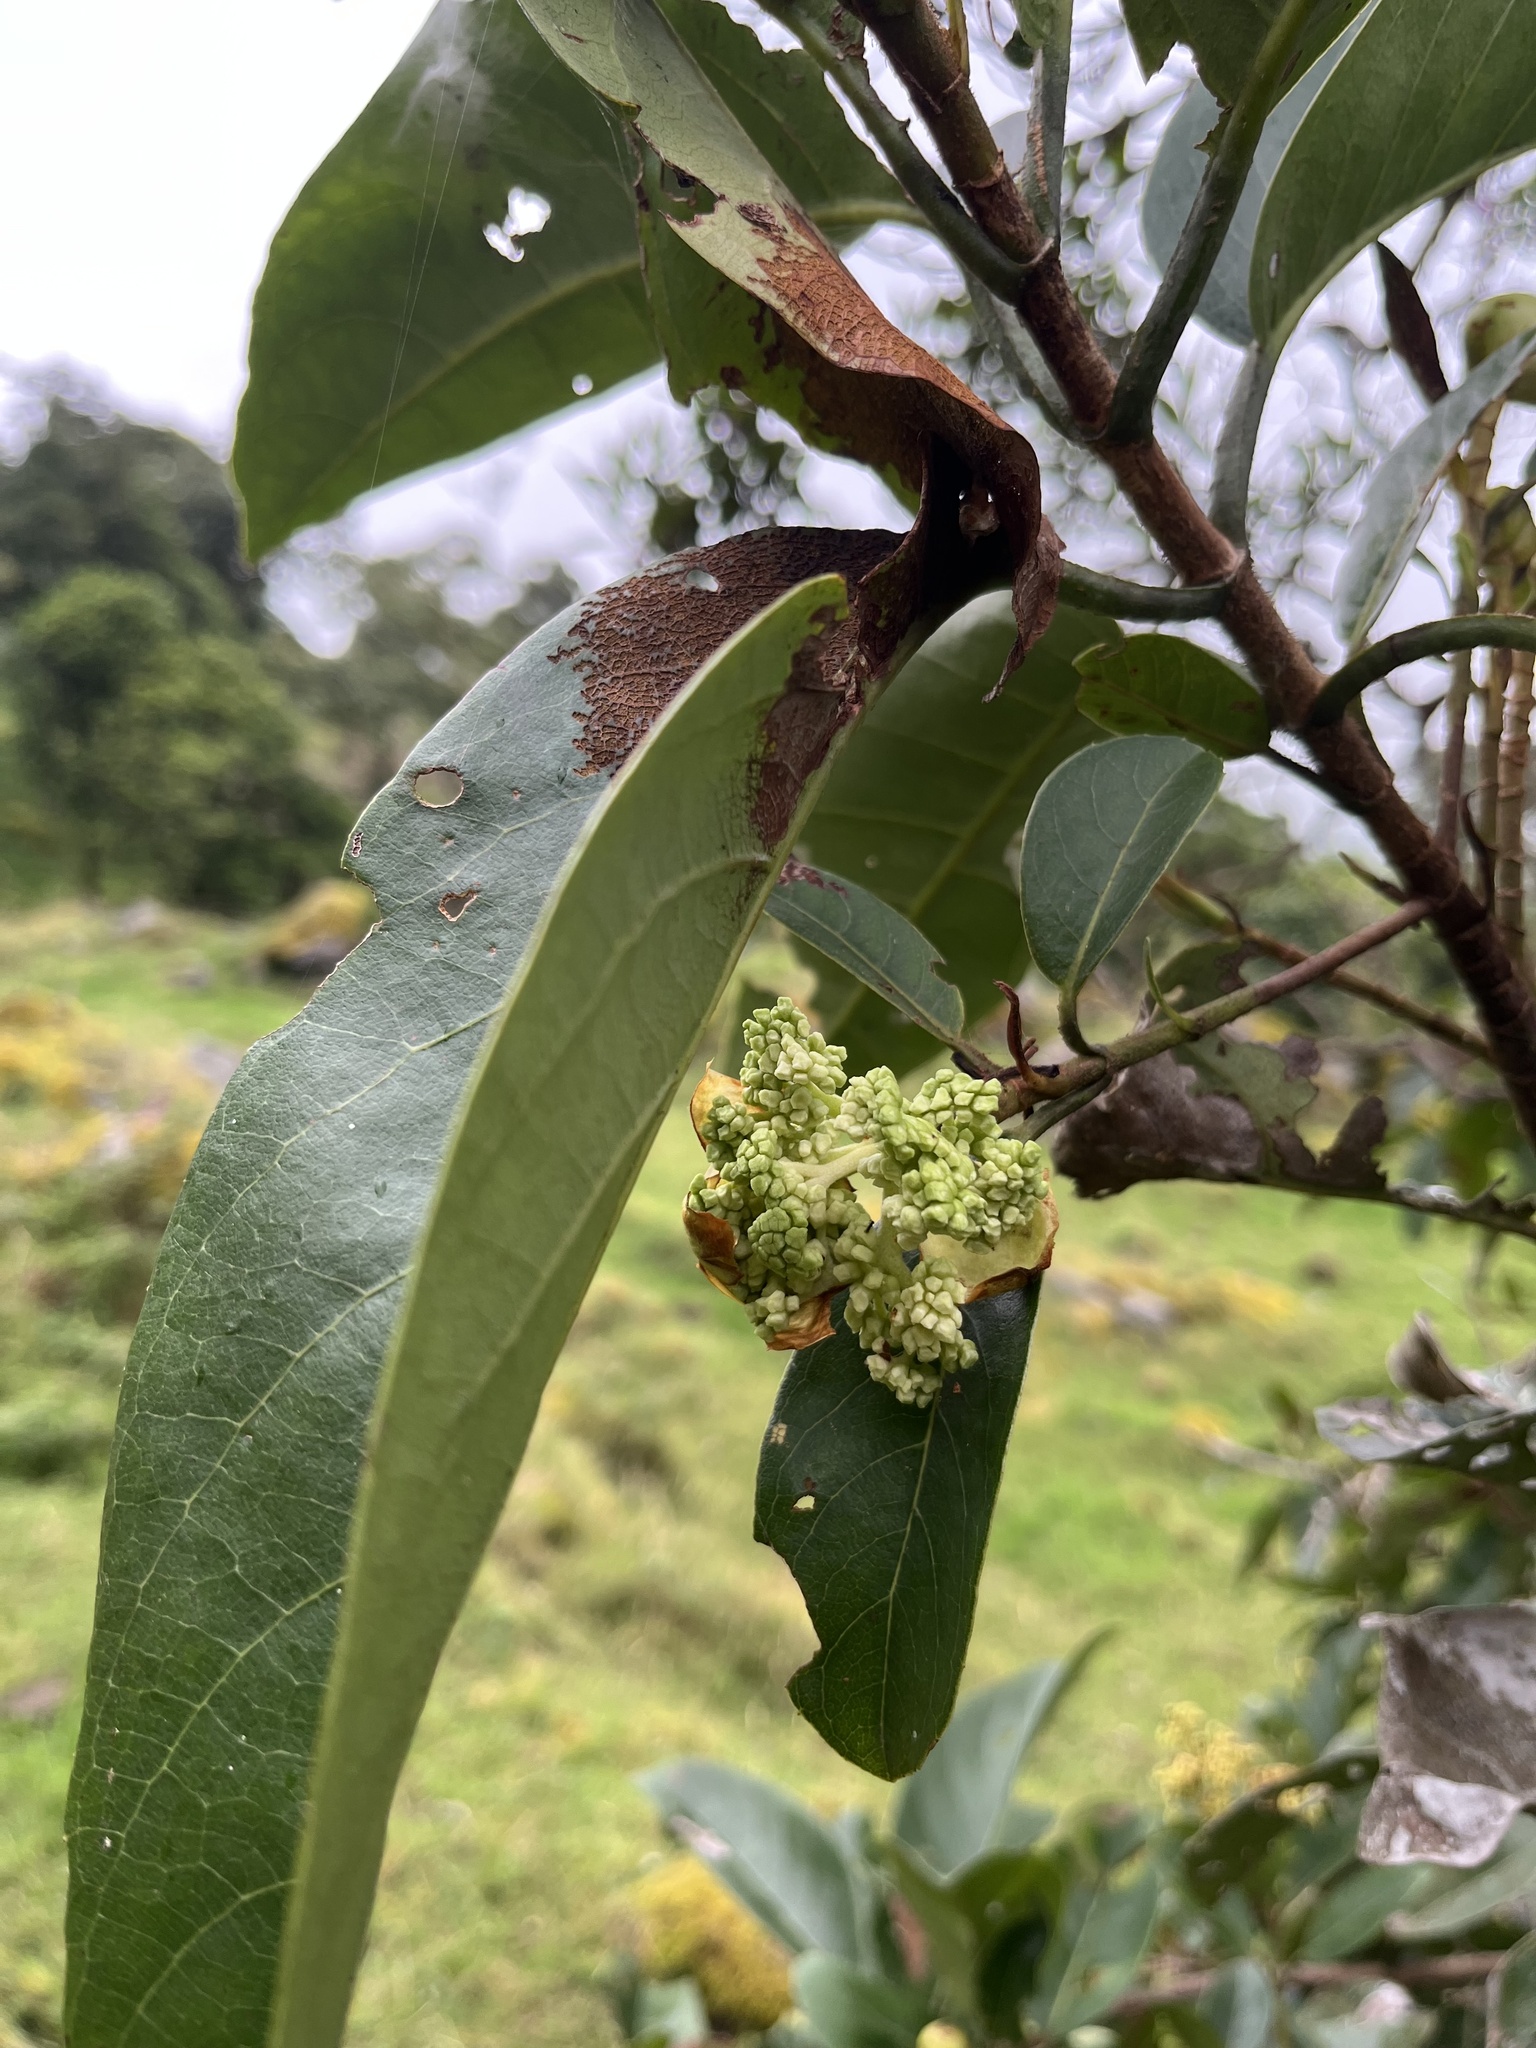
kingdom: Plantae
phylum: Tracheophyta
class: Magnoliopsida
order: Cornales
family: Hydrangeaceae
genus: Hydrangea
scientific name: Hydrangea peruviana
